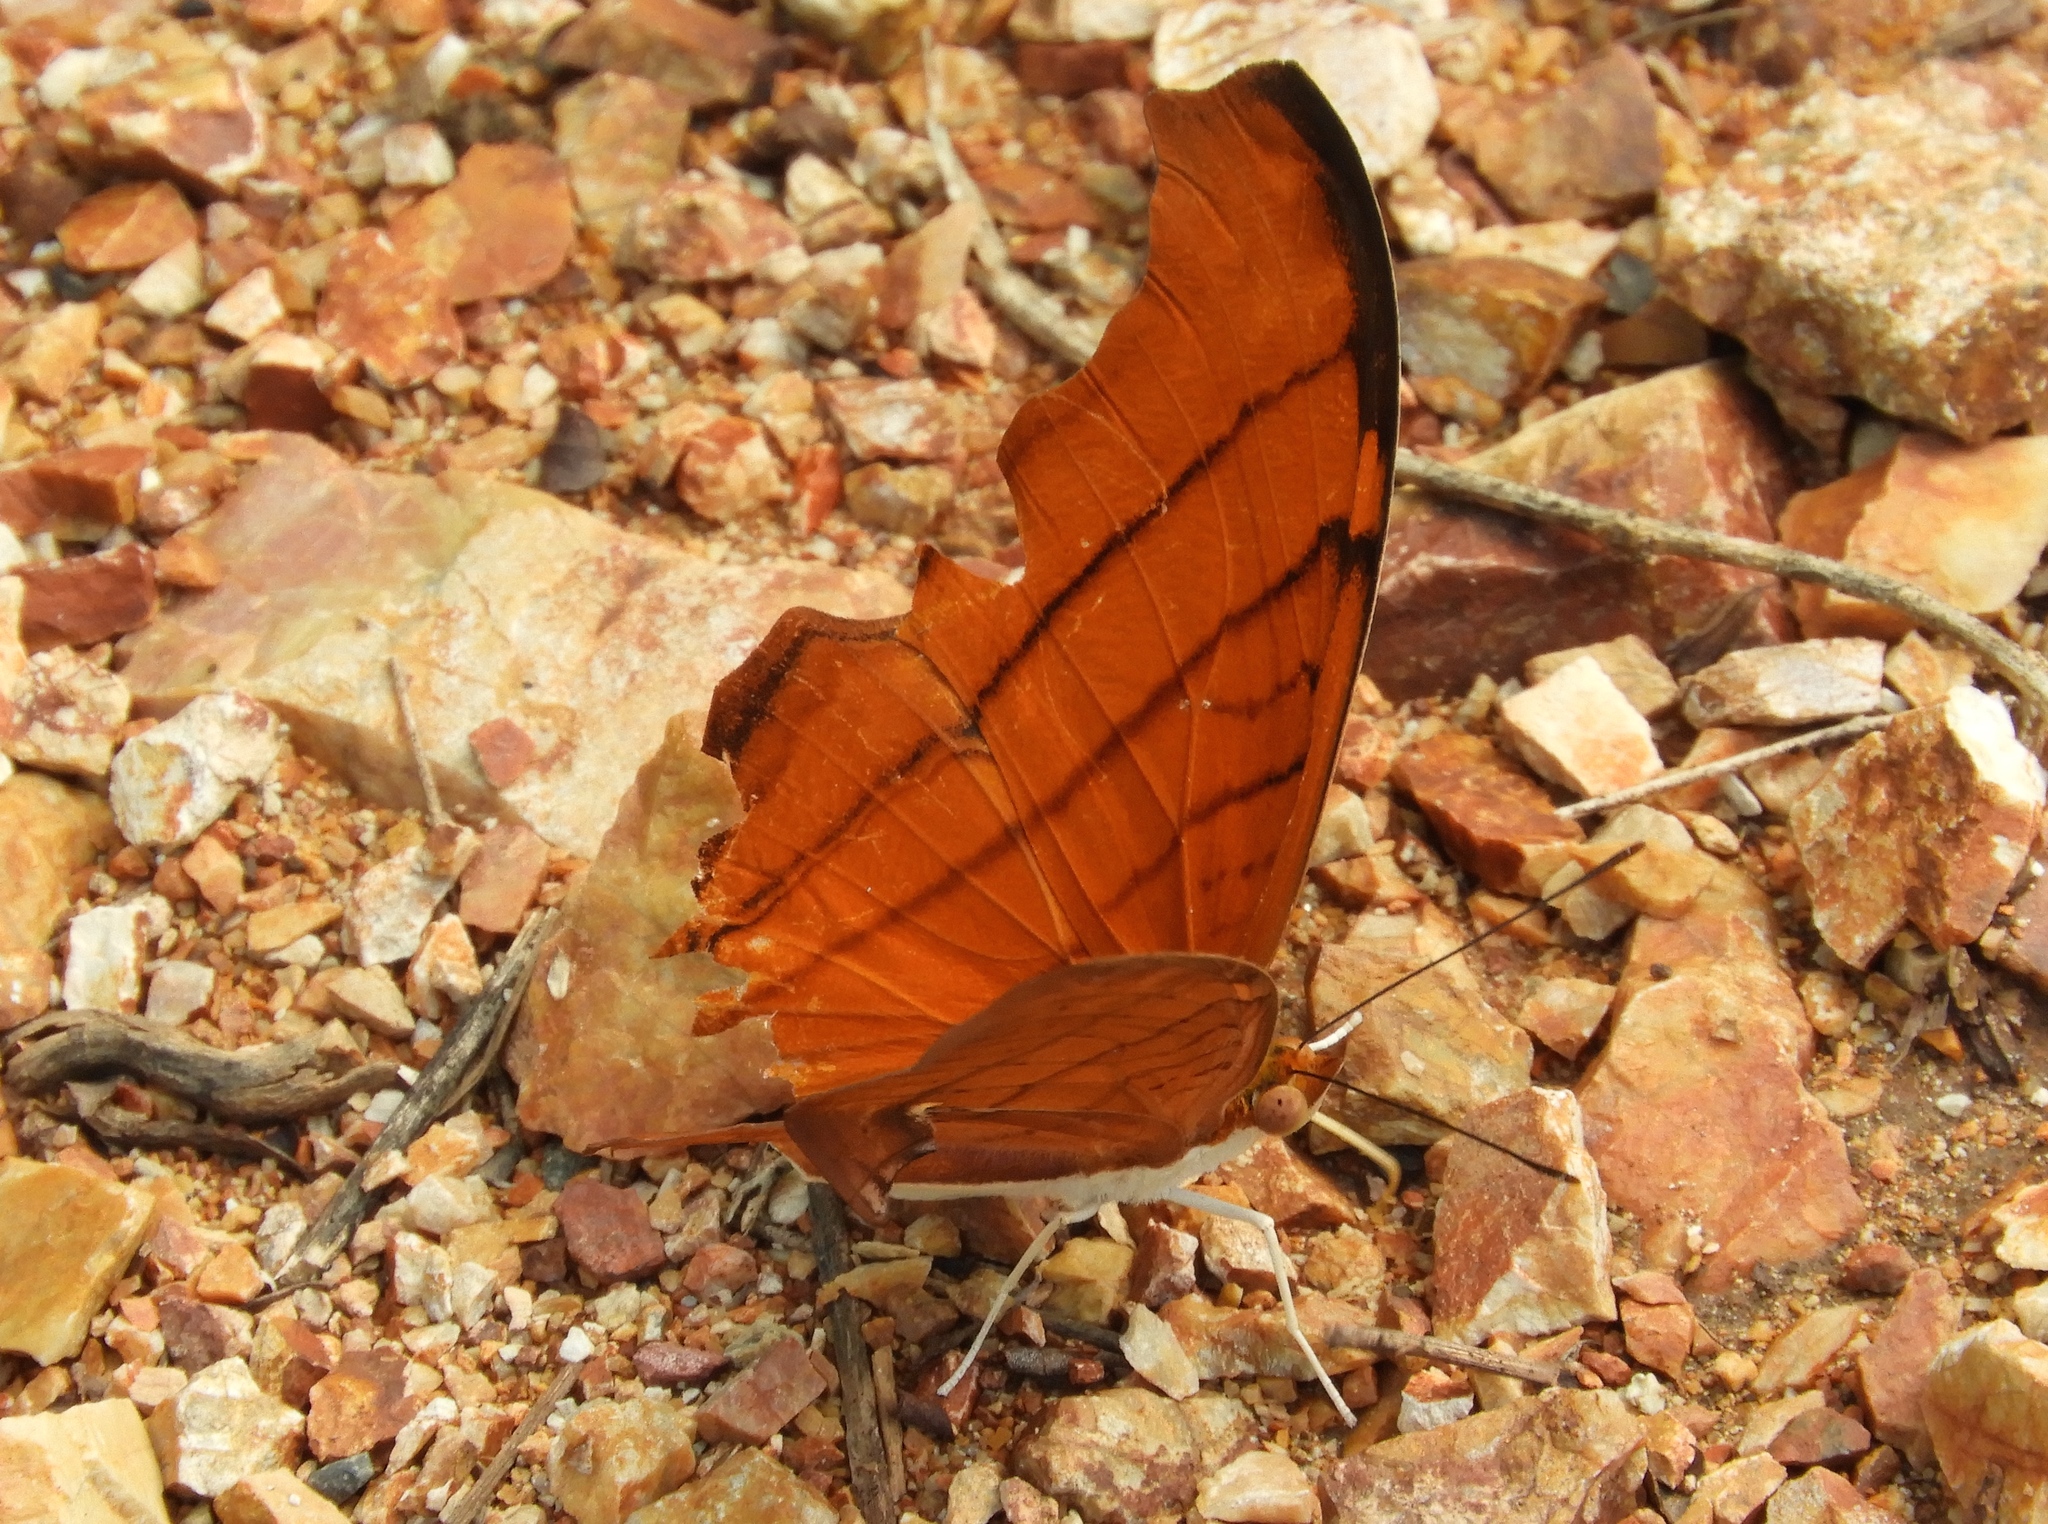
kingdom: Animalia
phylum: Arthropoda
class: Insecta
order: Lepidoptera
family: Nymphalidae
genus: Marpesia
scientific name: Marpesia petreus
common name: Red dagger wing
